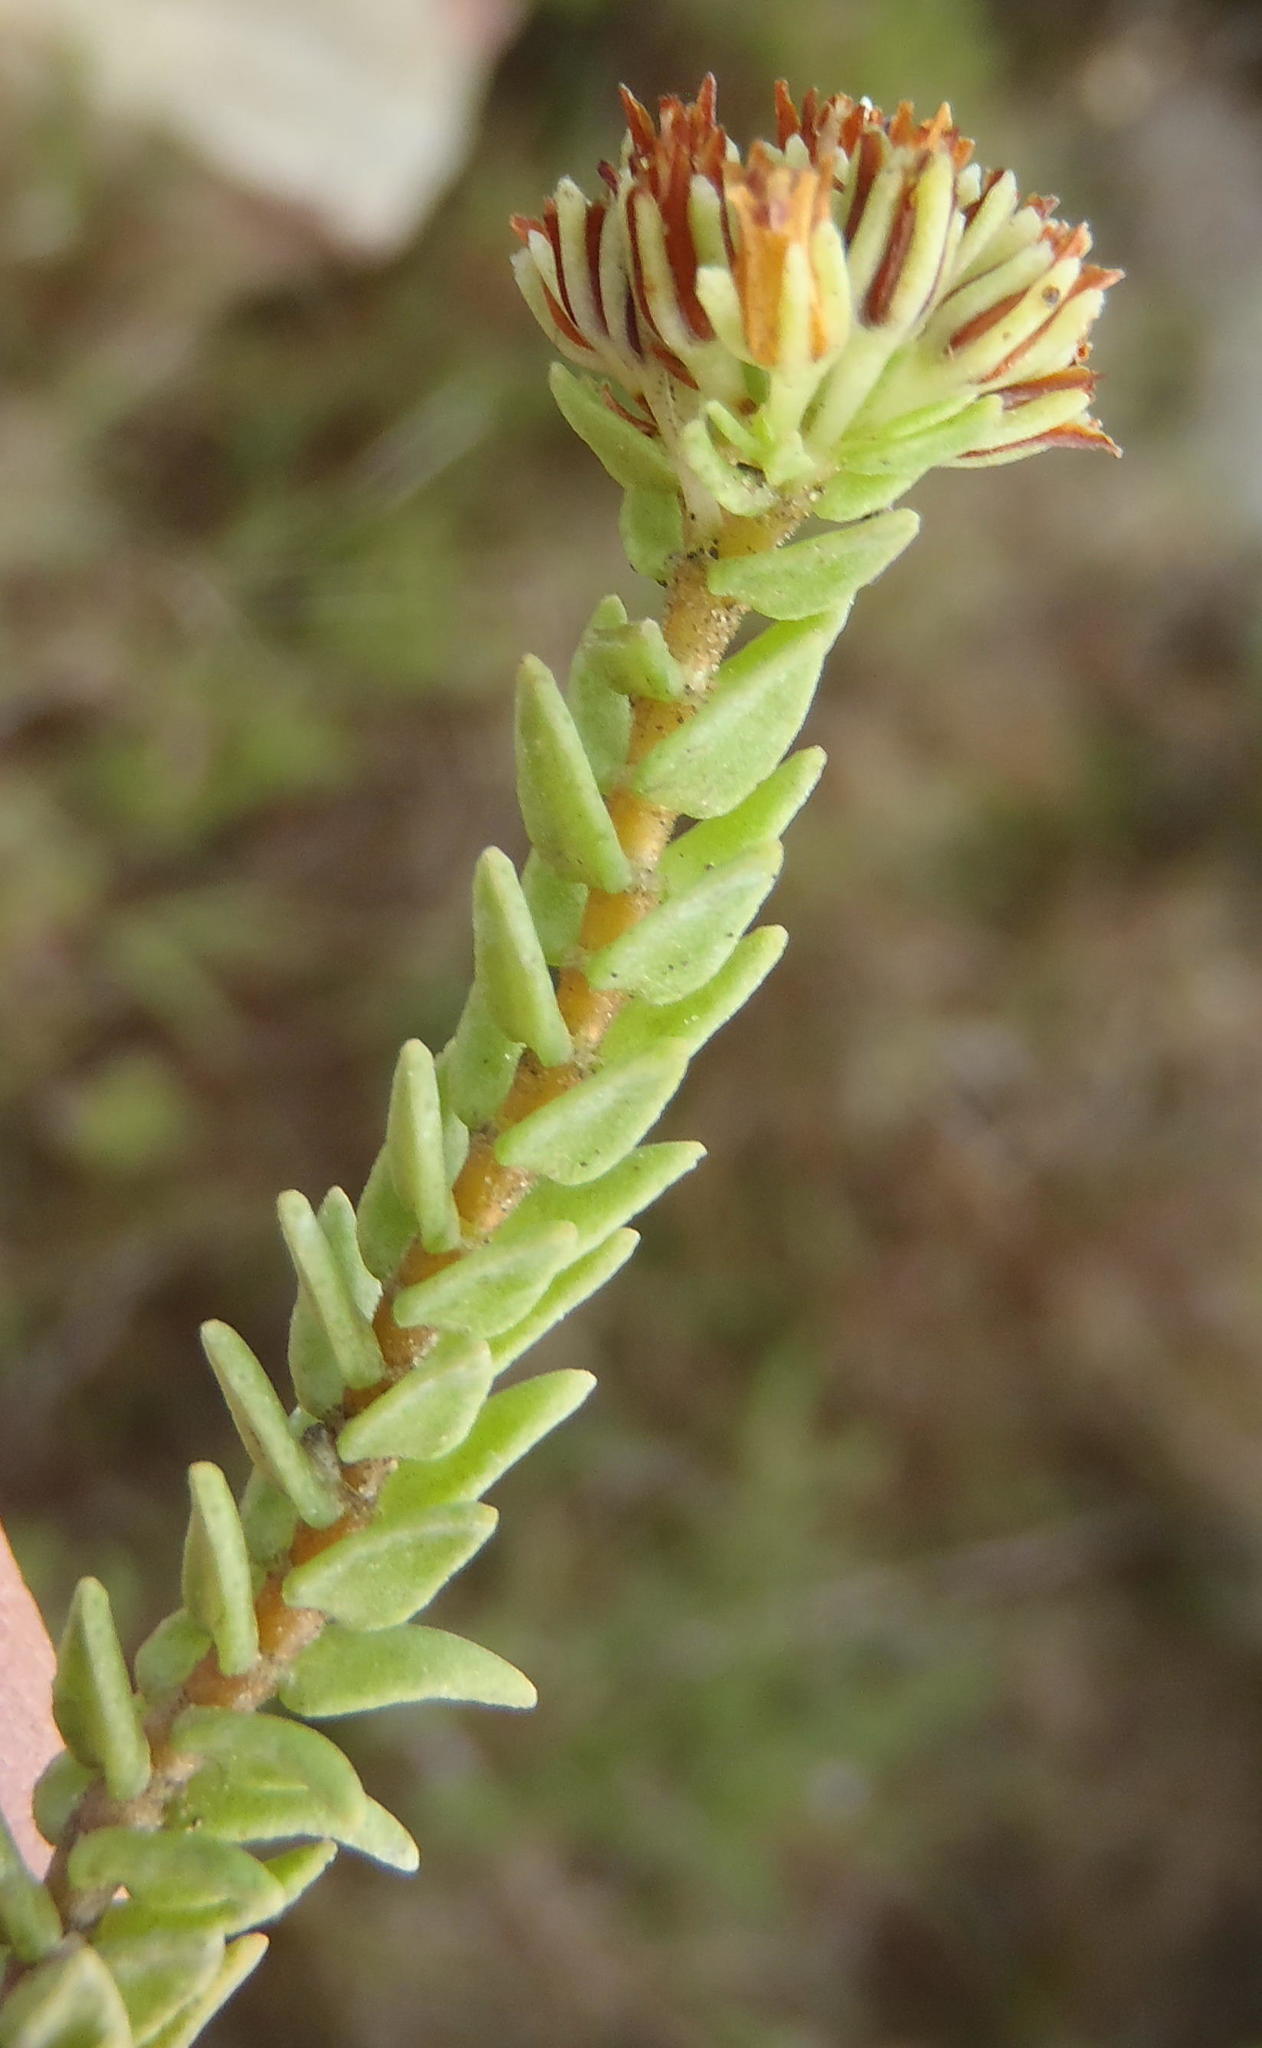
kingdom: Plantae
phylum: Tracheophyta
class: Magnoliopsida
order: Saxifragales
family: Crassulaceae
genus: Crassula
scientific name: Crassula ericoides
